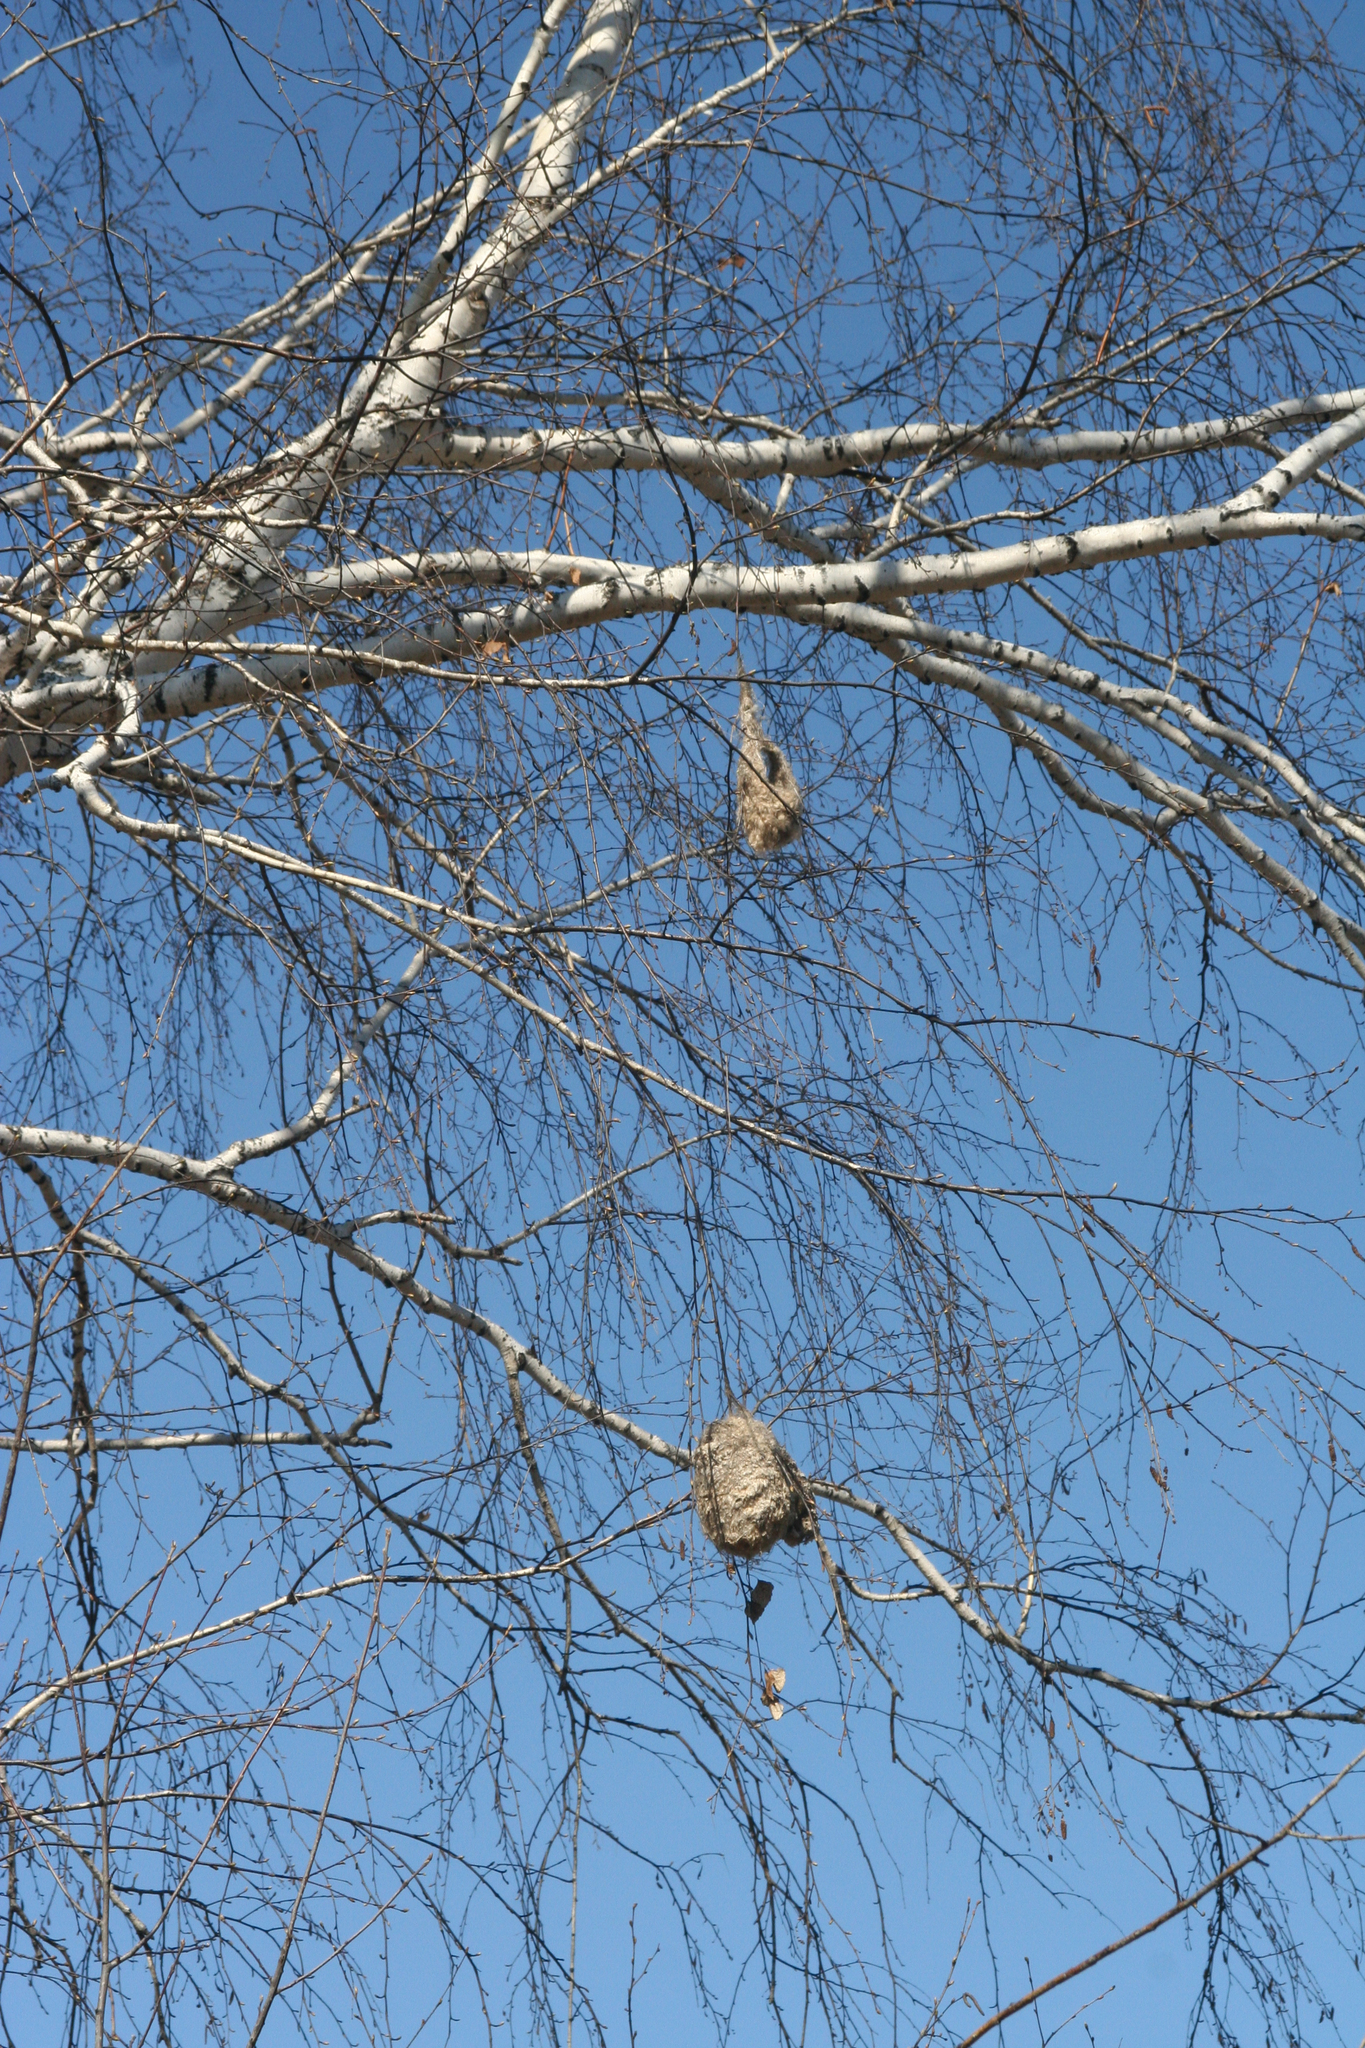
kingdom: Animalia
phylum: Chordata
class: Aves
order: Passeriformes
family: Remizidae
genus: Remiz
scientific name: Remiz pendulinus
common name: Eurasian penduline tit
